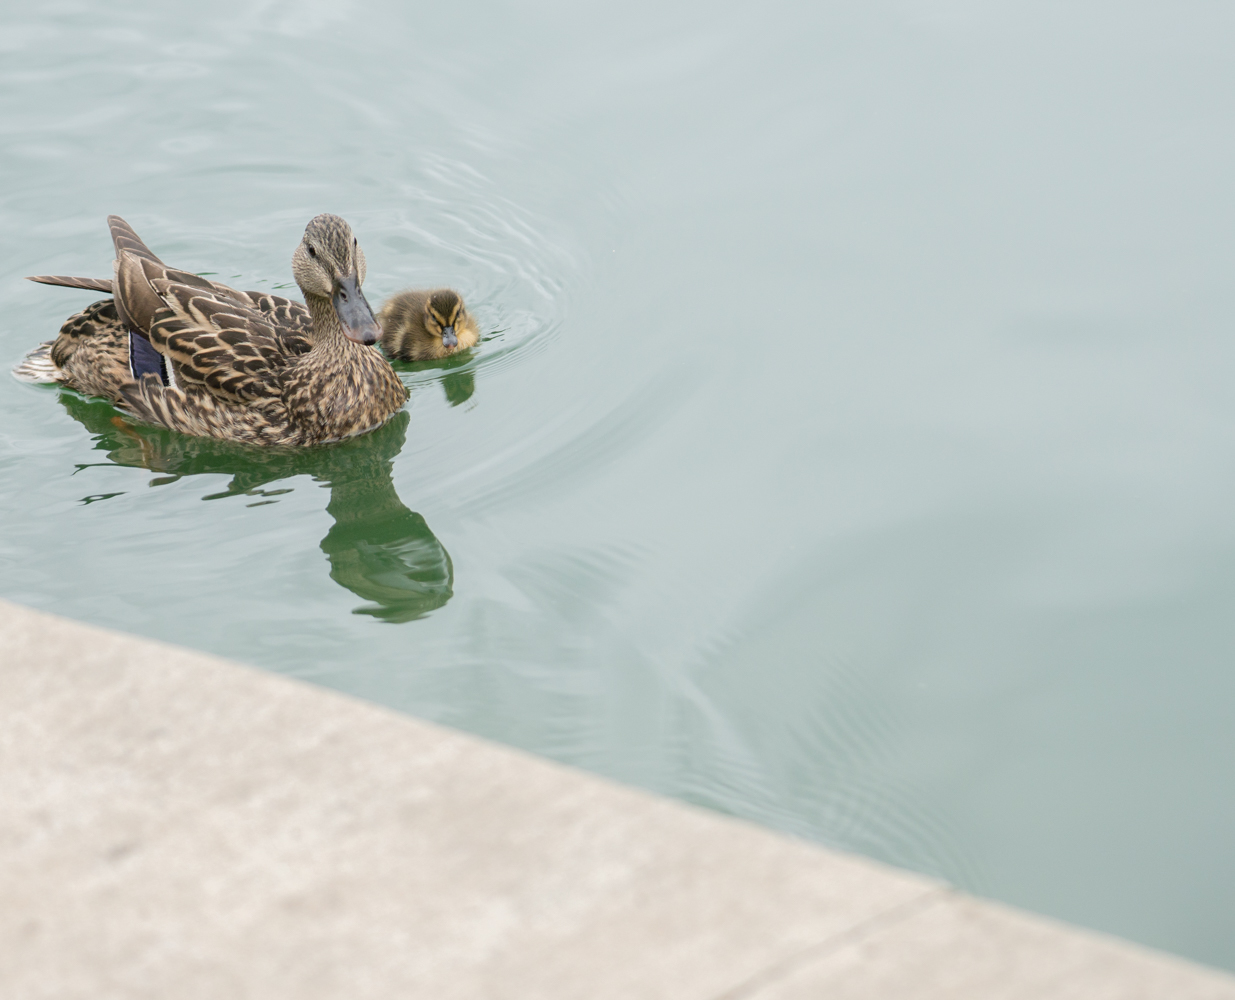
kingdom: Animalia
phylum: Chordata
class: Aves
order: Anseriformes
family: Anatidae
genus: Anas
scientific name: Anas platyrhynchos
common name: Mallard
